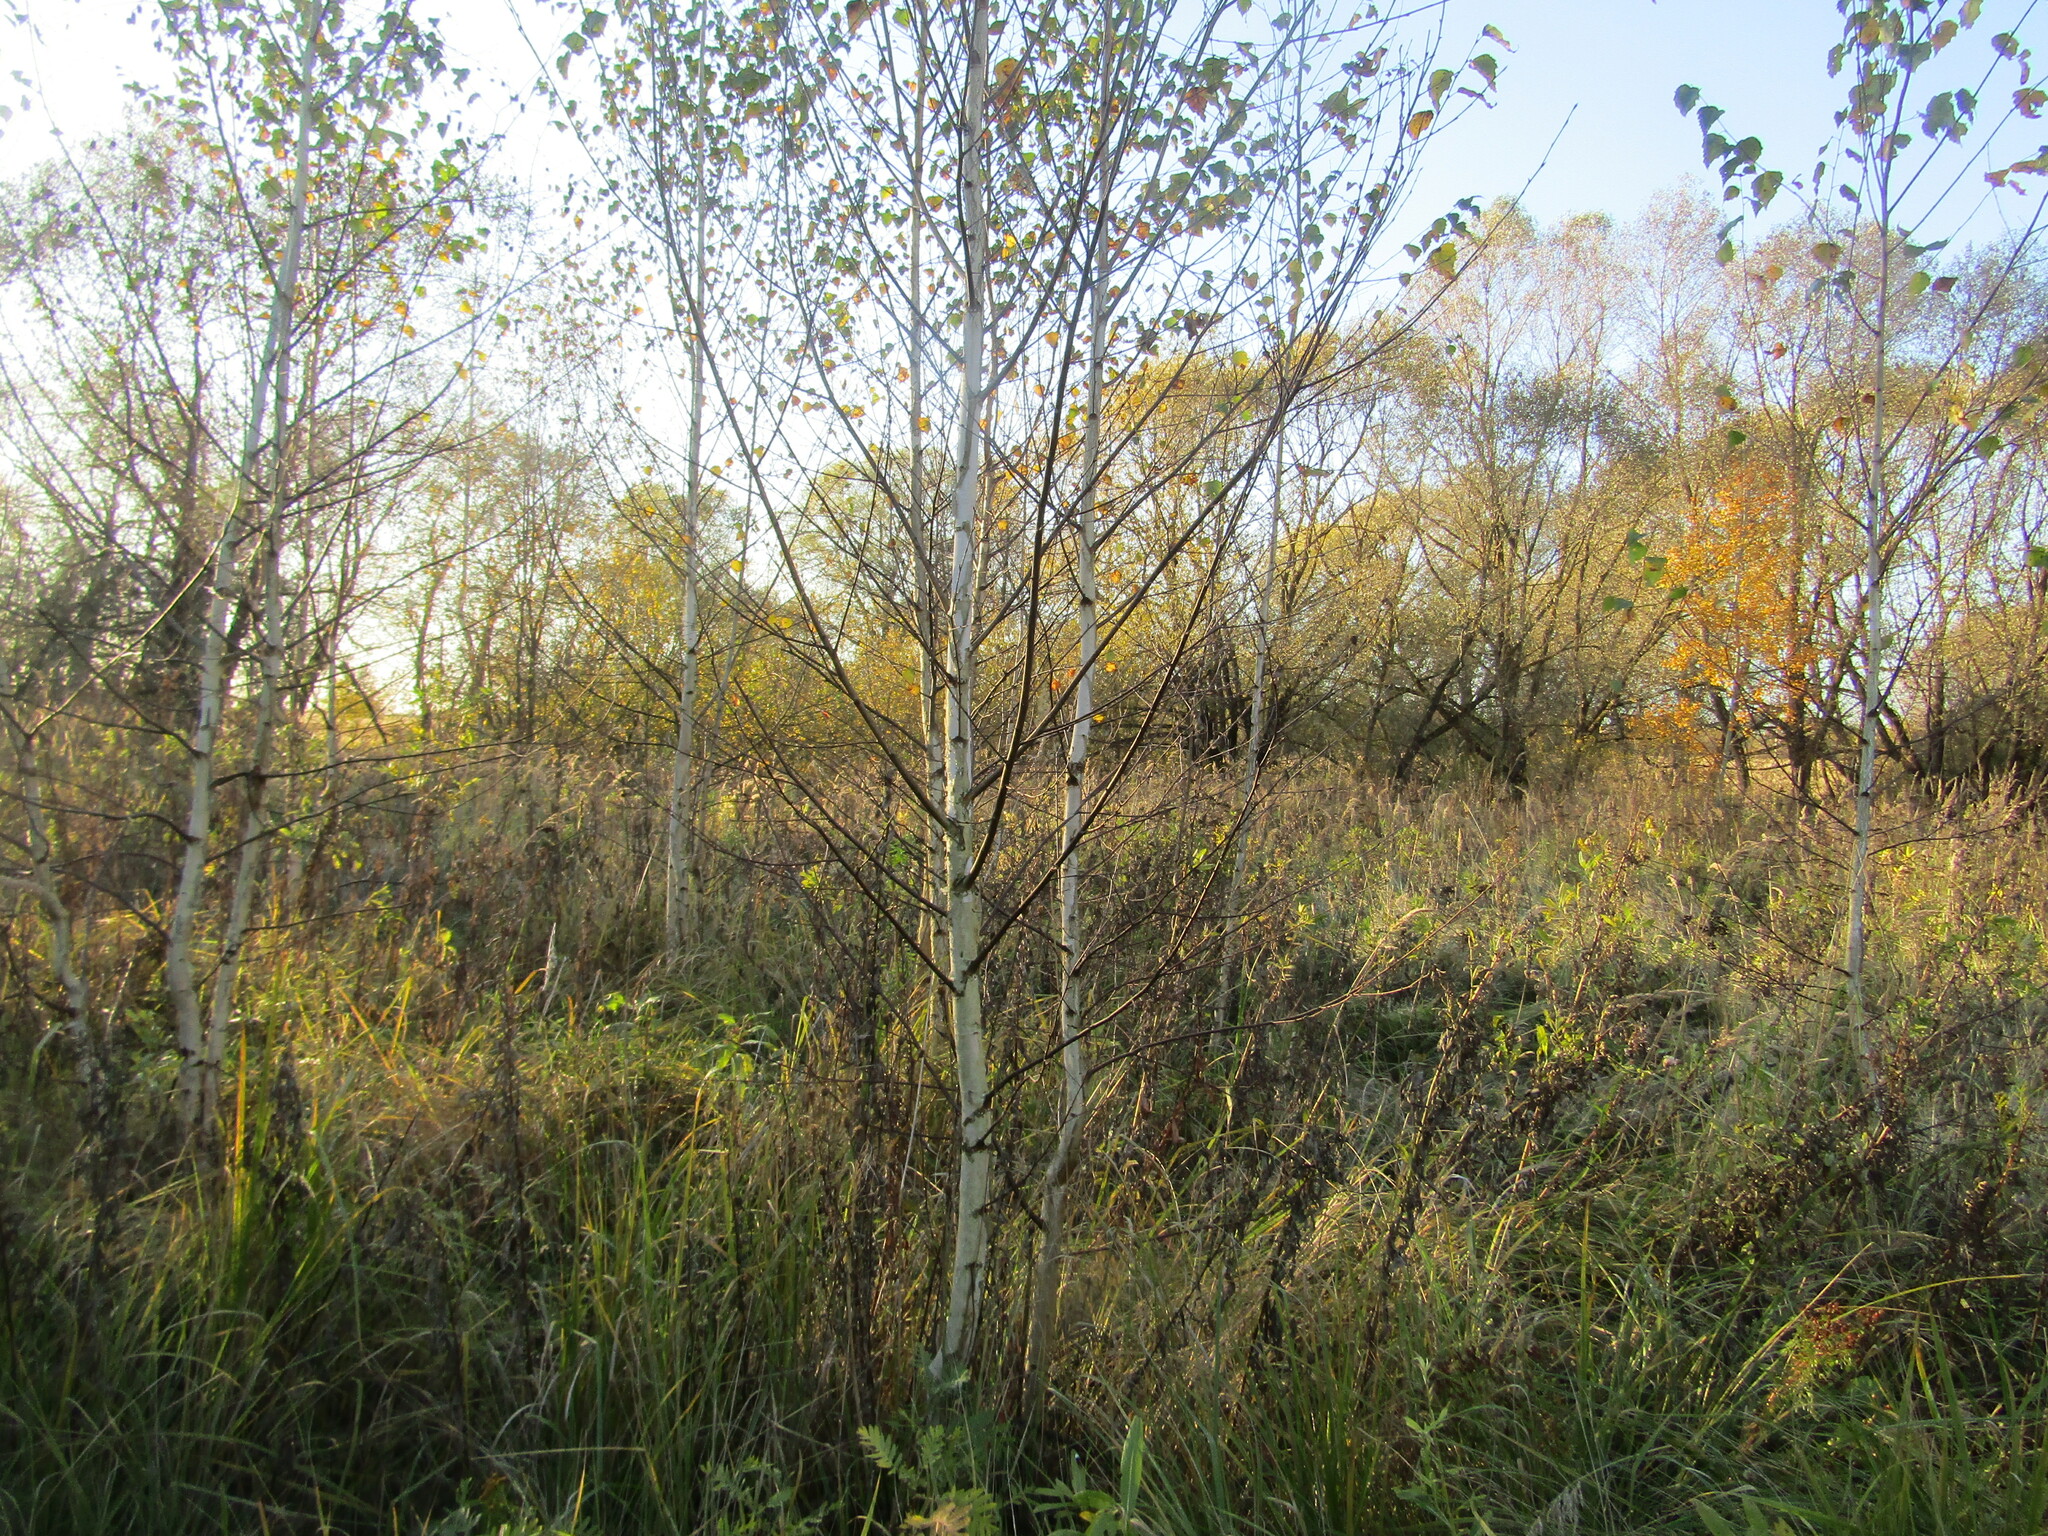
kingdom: Plantae
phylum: Tracheophyta
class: Magnoliopsida
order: Fagales
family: Betulaceae
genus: Betula
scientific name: Betula pendula
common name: Silver birch
